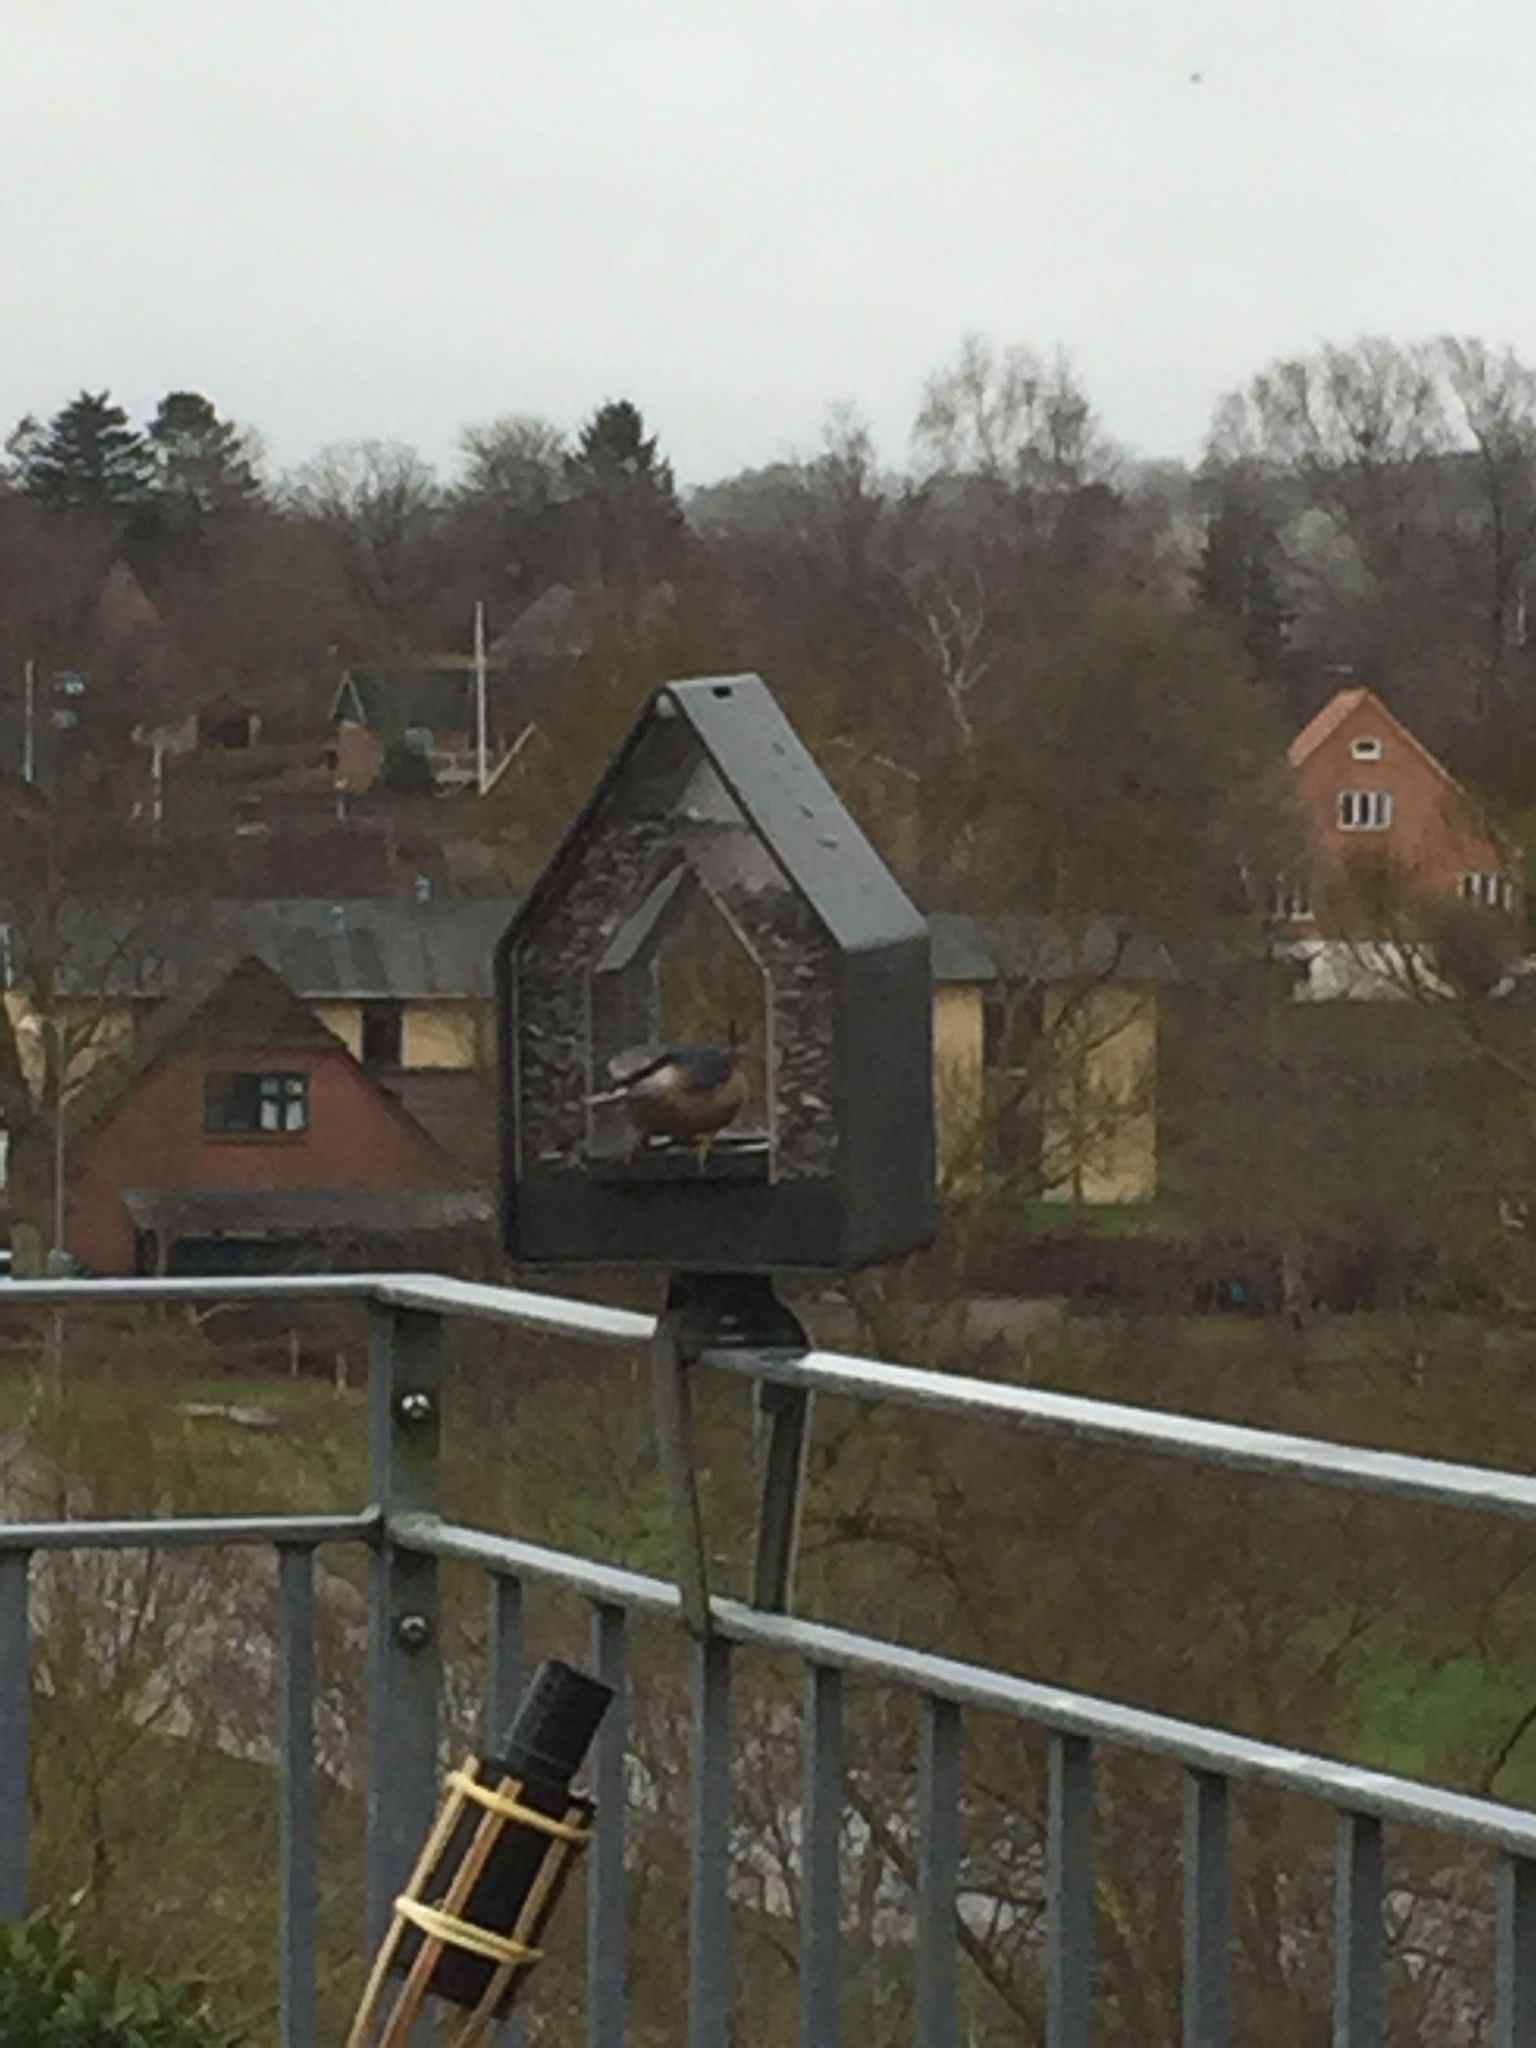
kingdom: Animalia
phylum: Chordata
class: Aves
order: Passeriformes
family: Sittidae
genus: Sitta
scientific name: Sitta europaea
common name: Eurasian nuthatch
